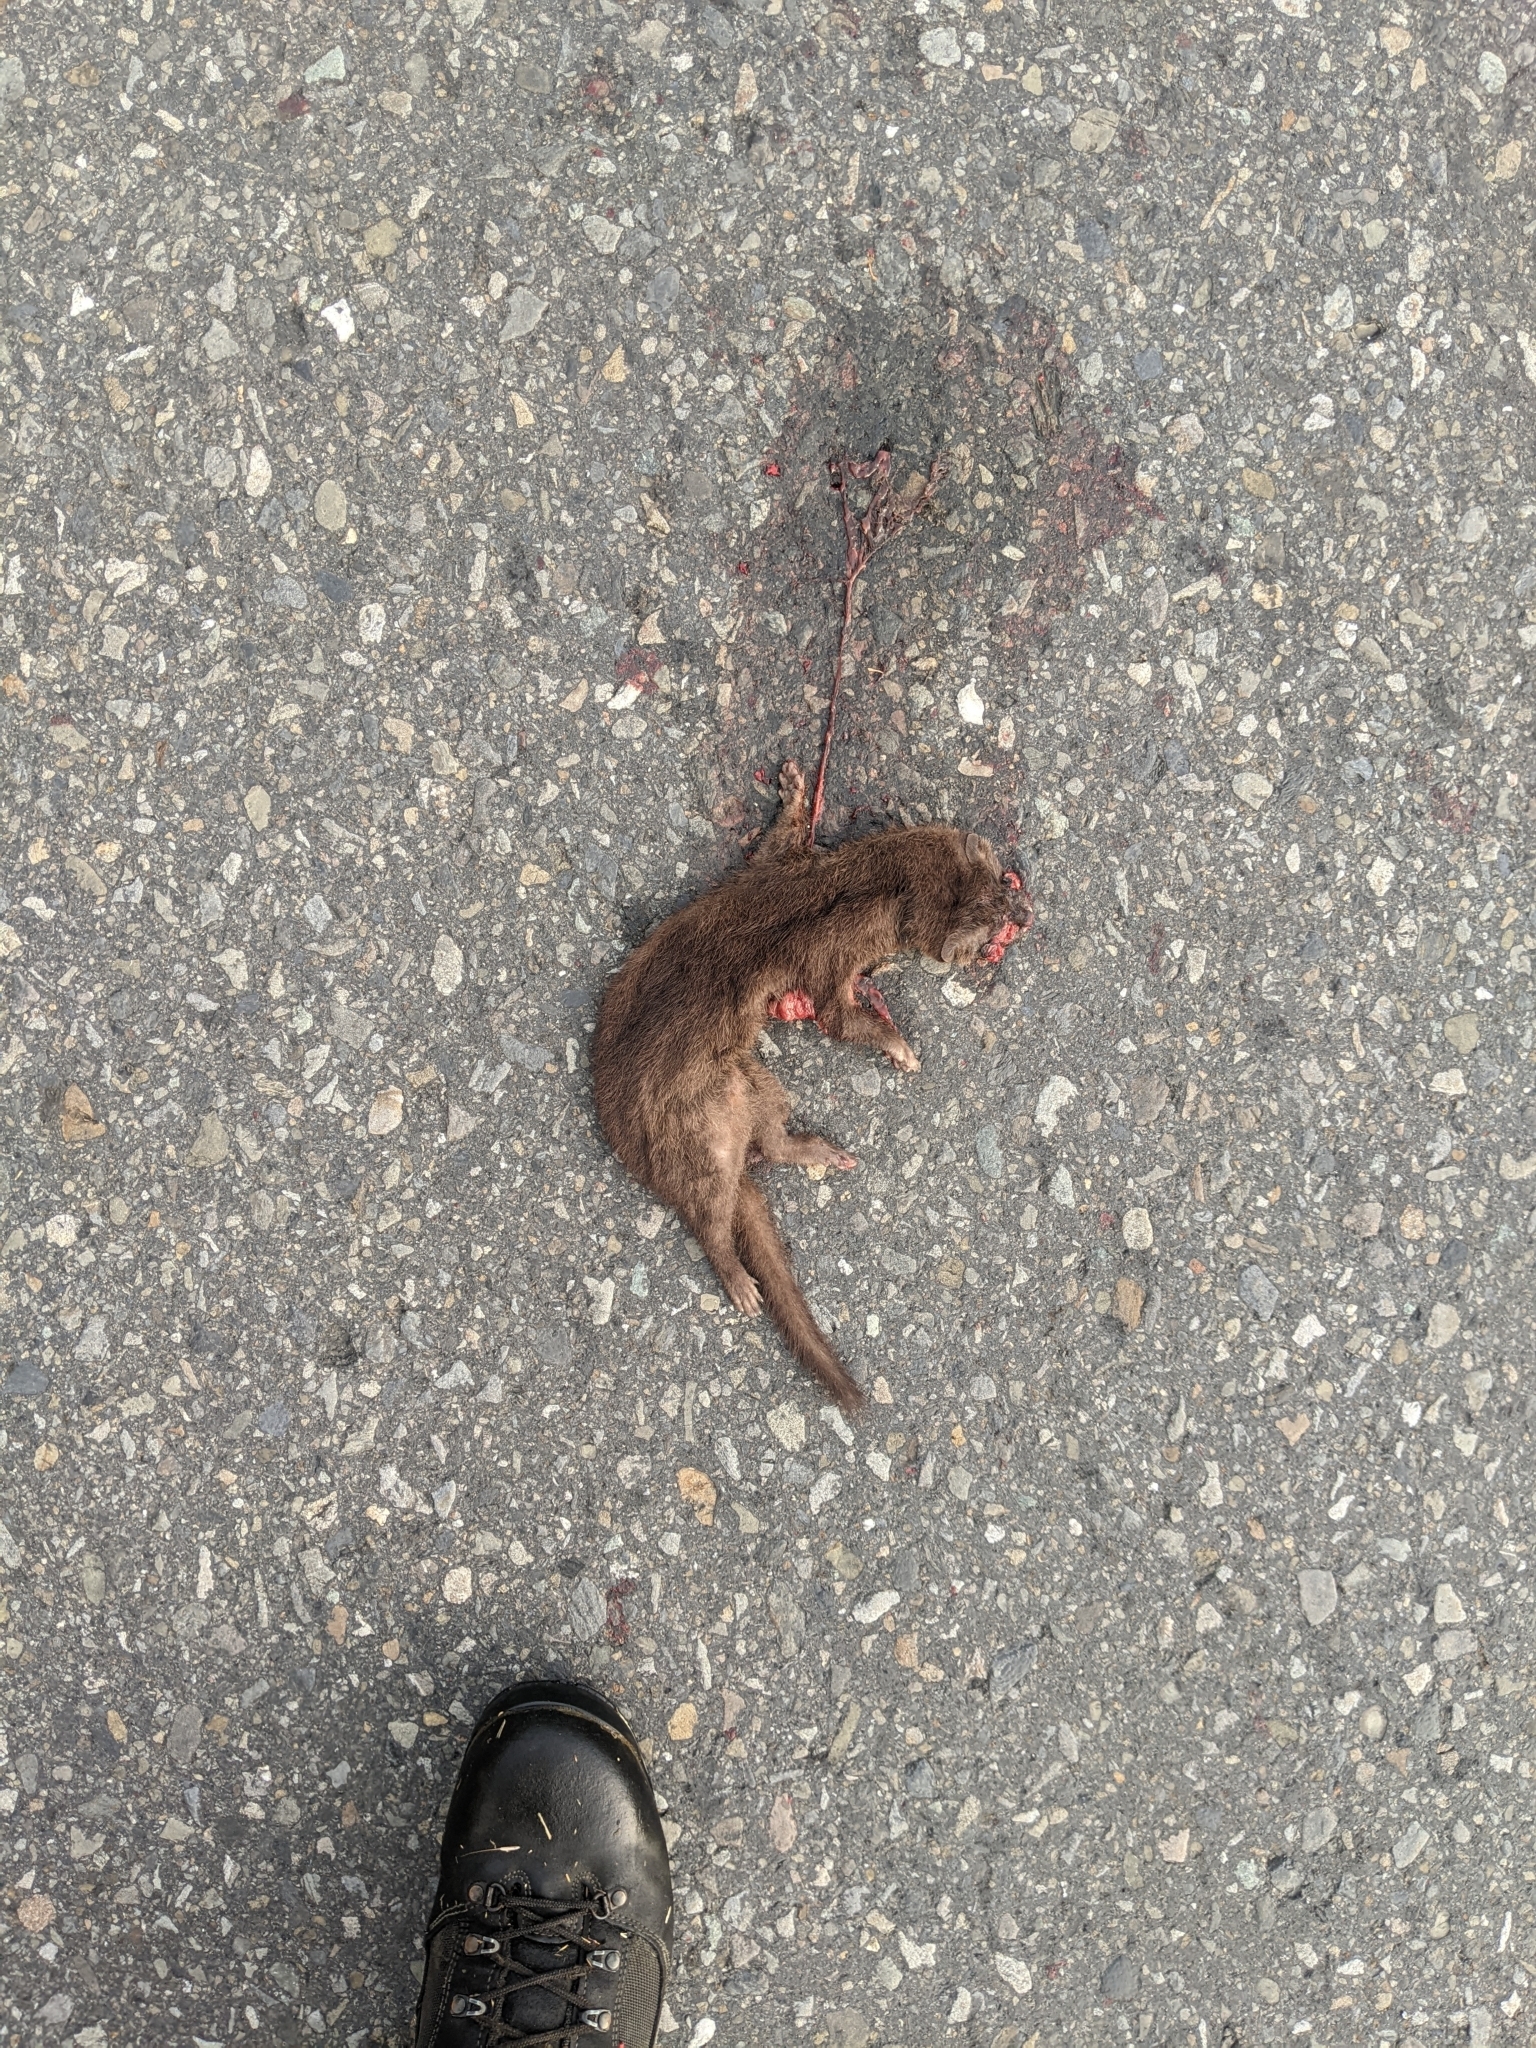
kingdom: Animalia
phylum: Chordata
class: Mammalia
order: Carnivora
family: Mustelidae
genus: Mustela
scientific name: Mustela sibirica
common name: Siberian weasel
